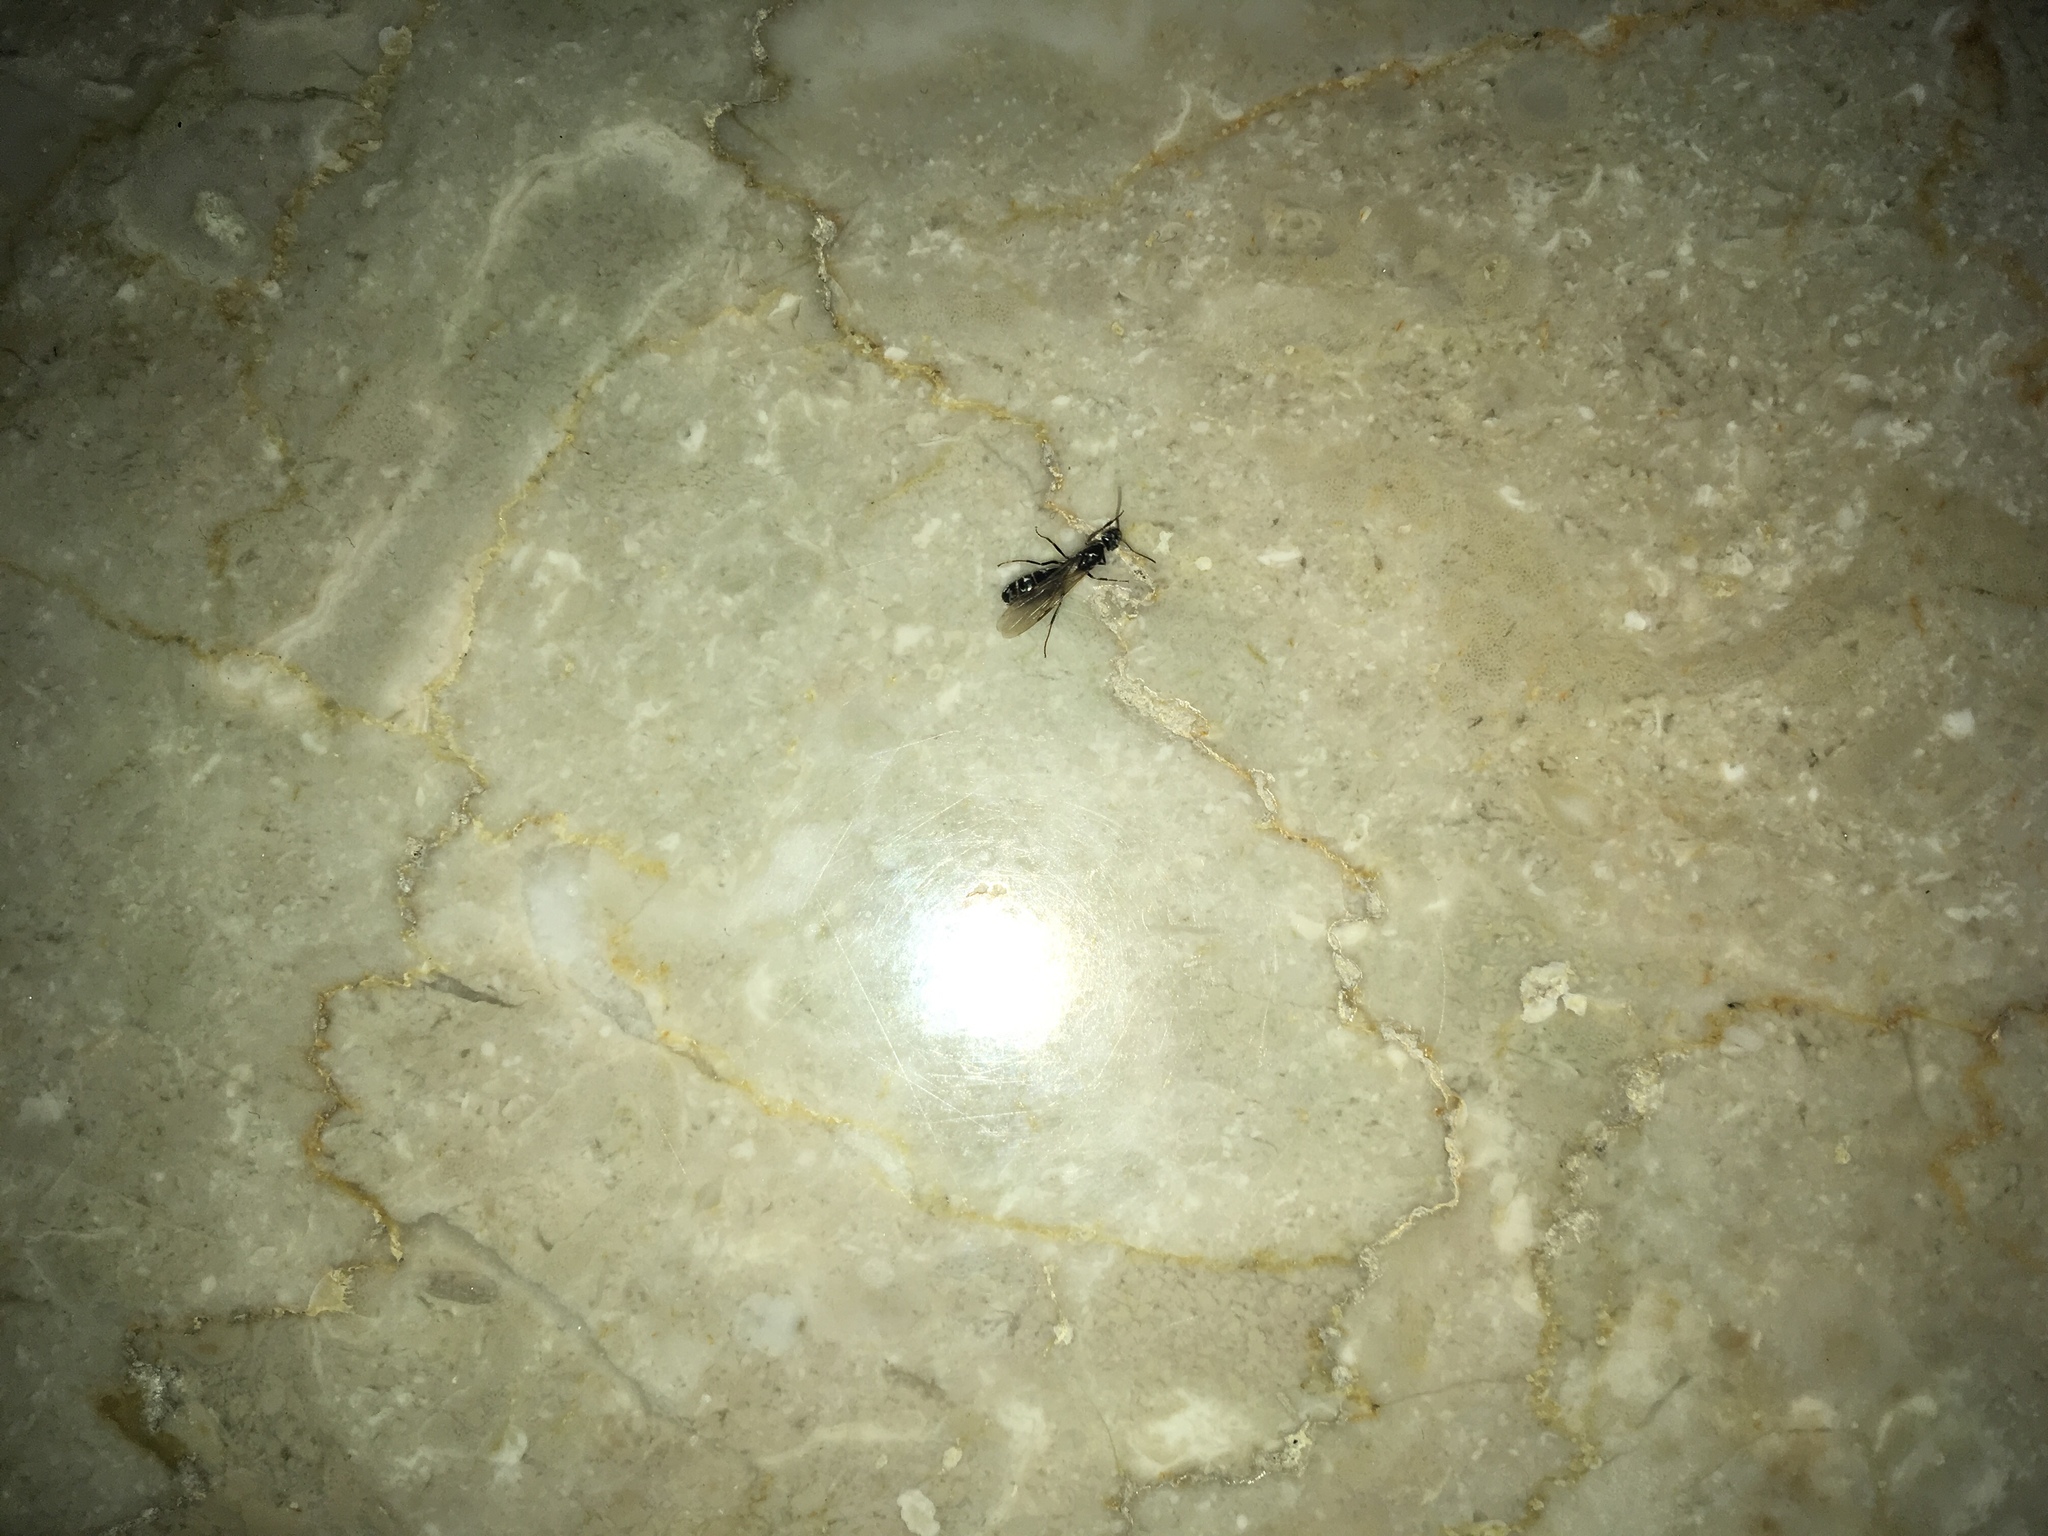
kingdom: Animalia
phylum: Arthropoda
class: Insecta
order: Hymenoptera
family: Formicidae
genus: Iridomyrmex
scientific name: Iridomyrmex anceps
